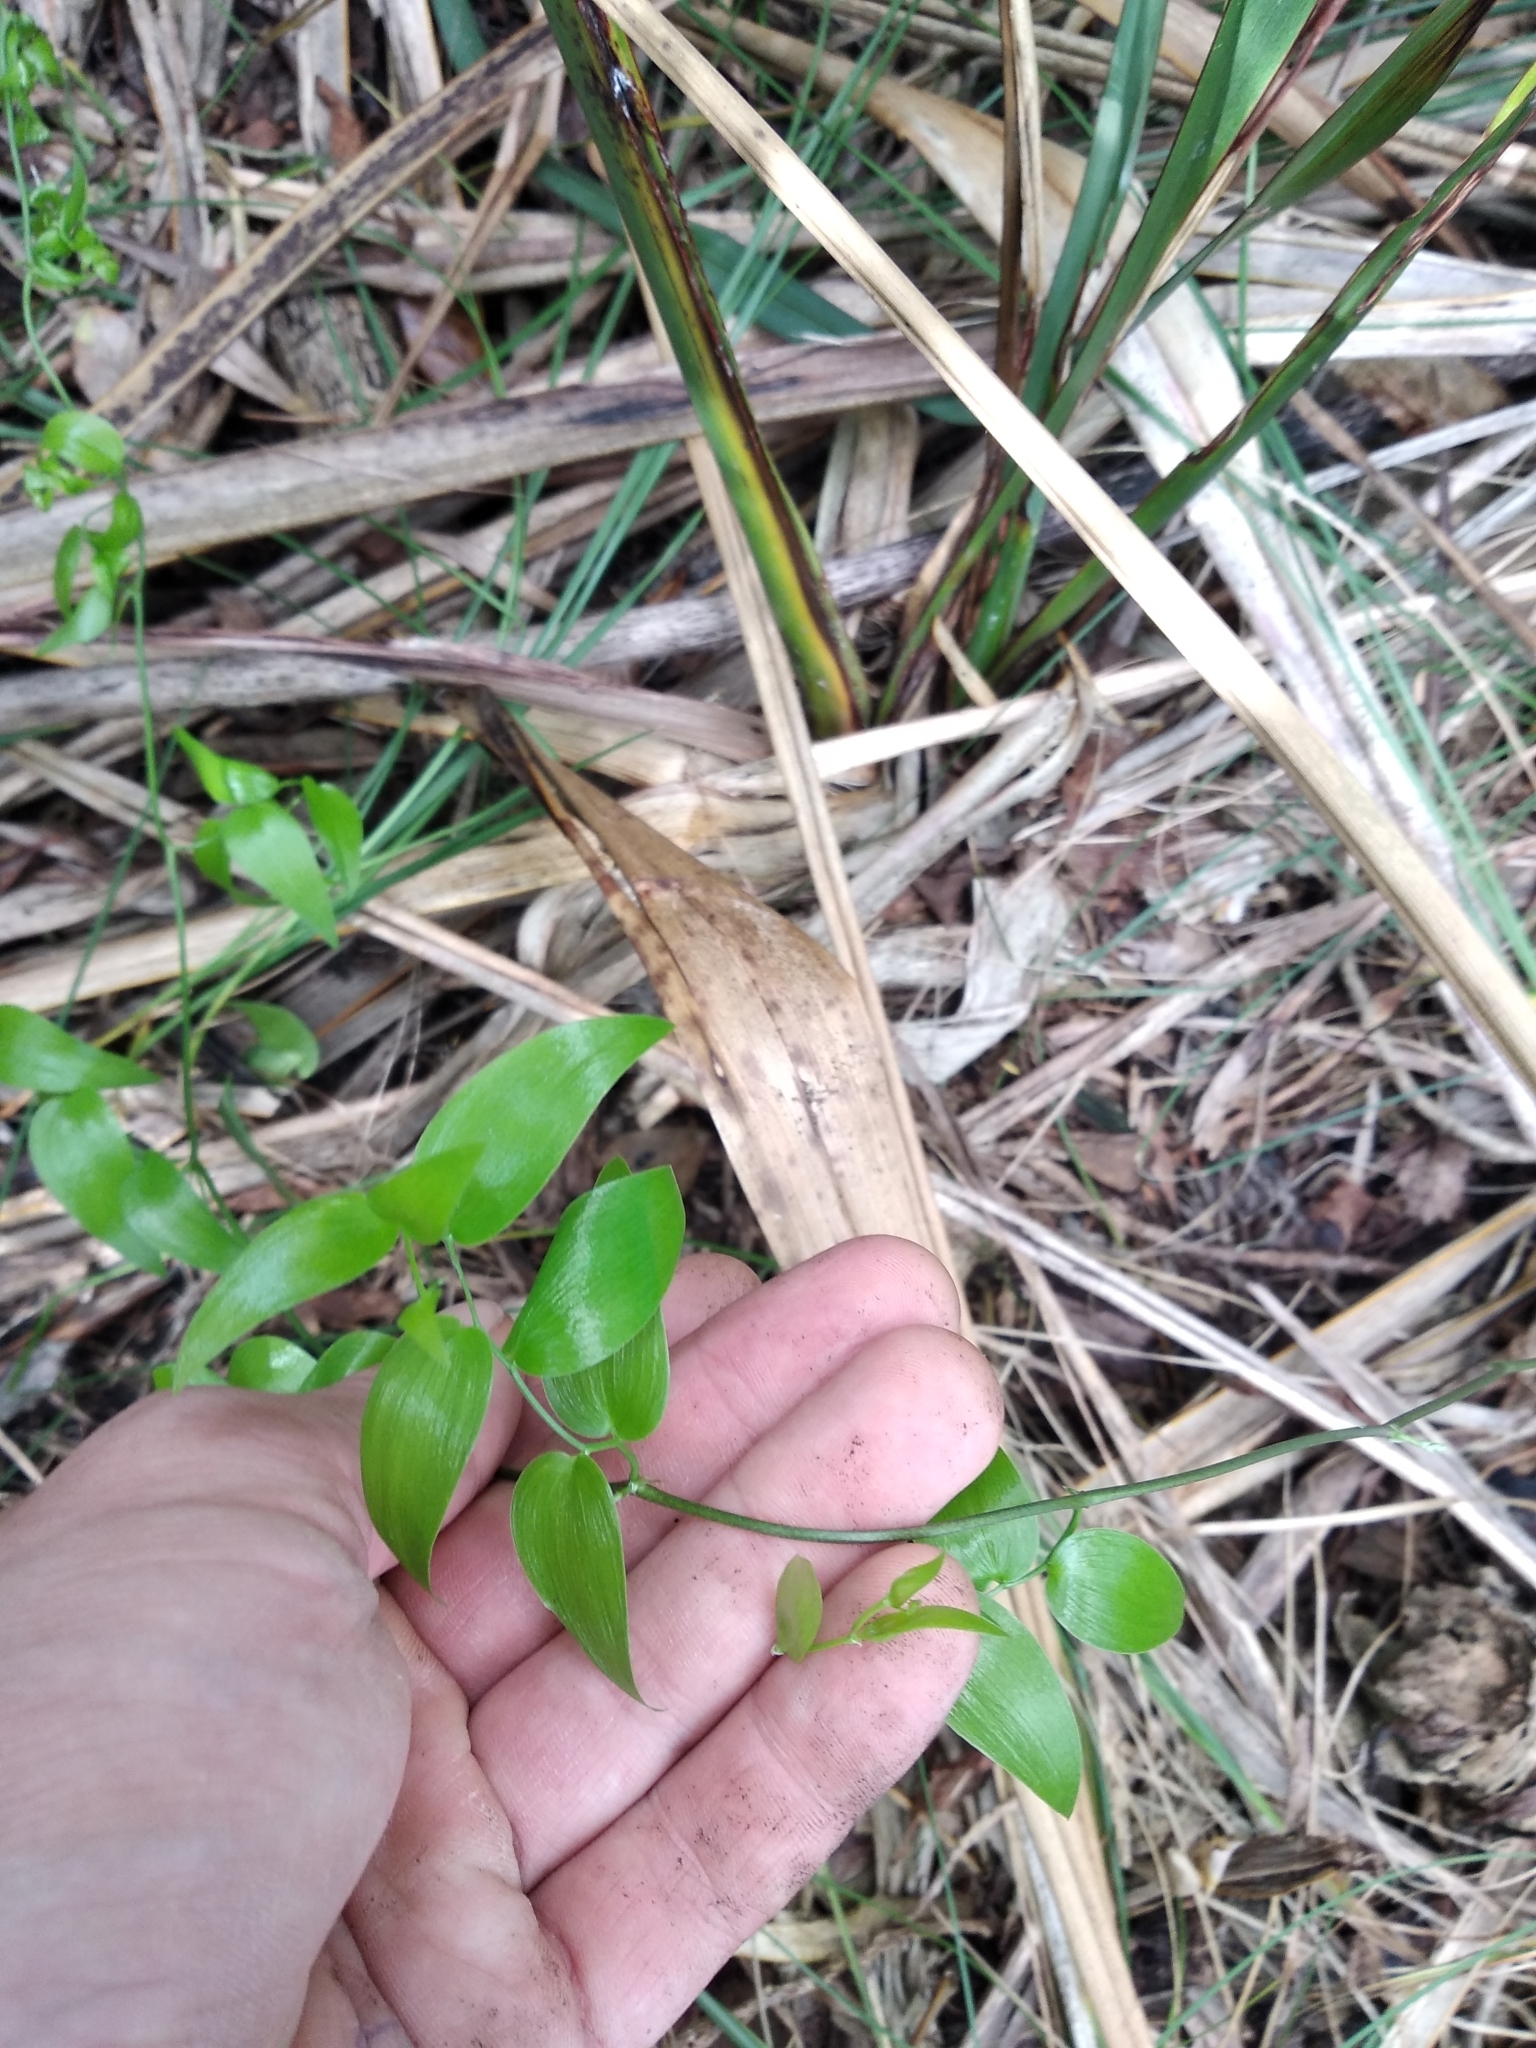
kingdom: Plantae
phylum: Tracheophyta
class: Liliopsida
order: Asparagales
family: Asparagaceae
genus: Asparagus
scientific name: Asparagus asparagoides
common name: African asparagus fern
